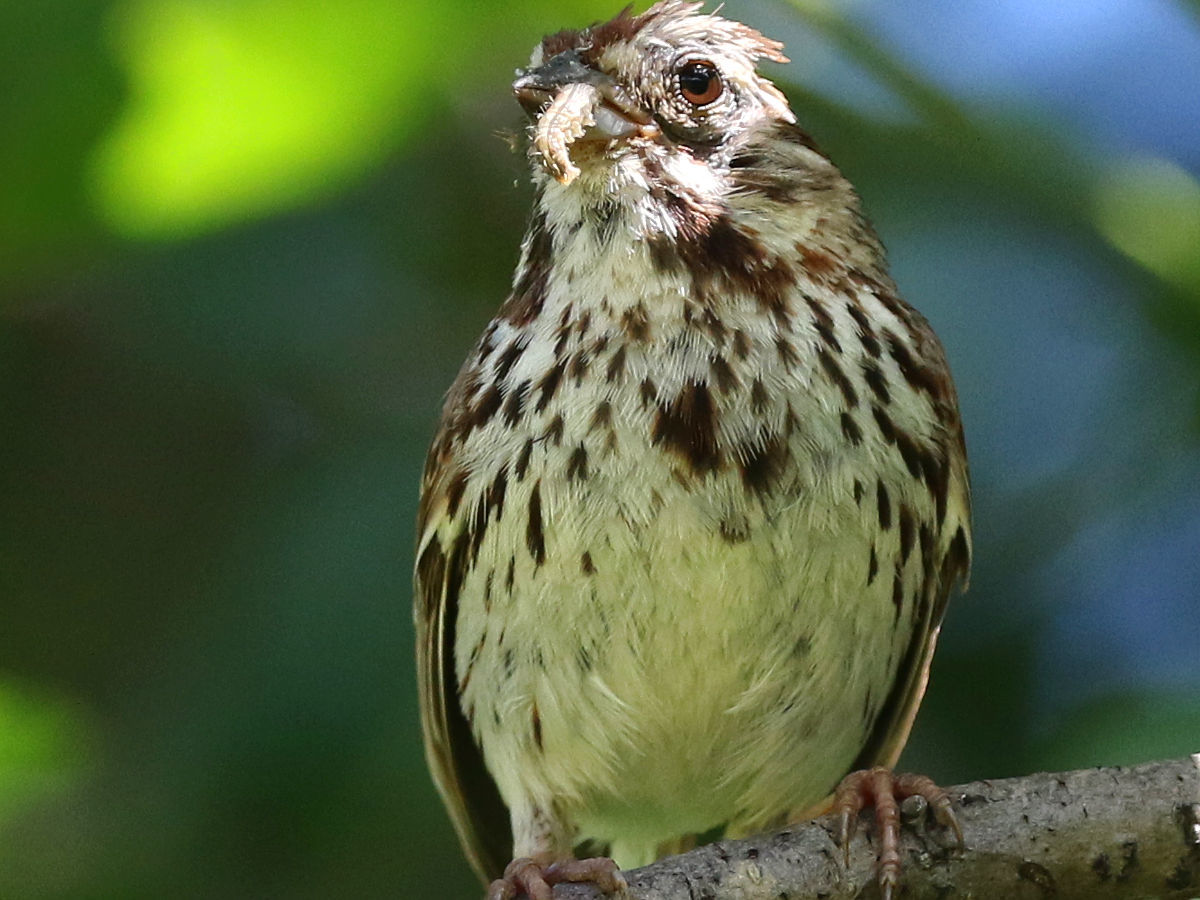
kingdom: Animalia
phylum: Chordata
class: Aves
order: Passeriformes
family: Passerellidae
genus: Melospiza
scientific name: Melospiza melodia
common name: Song sparrow
